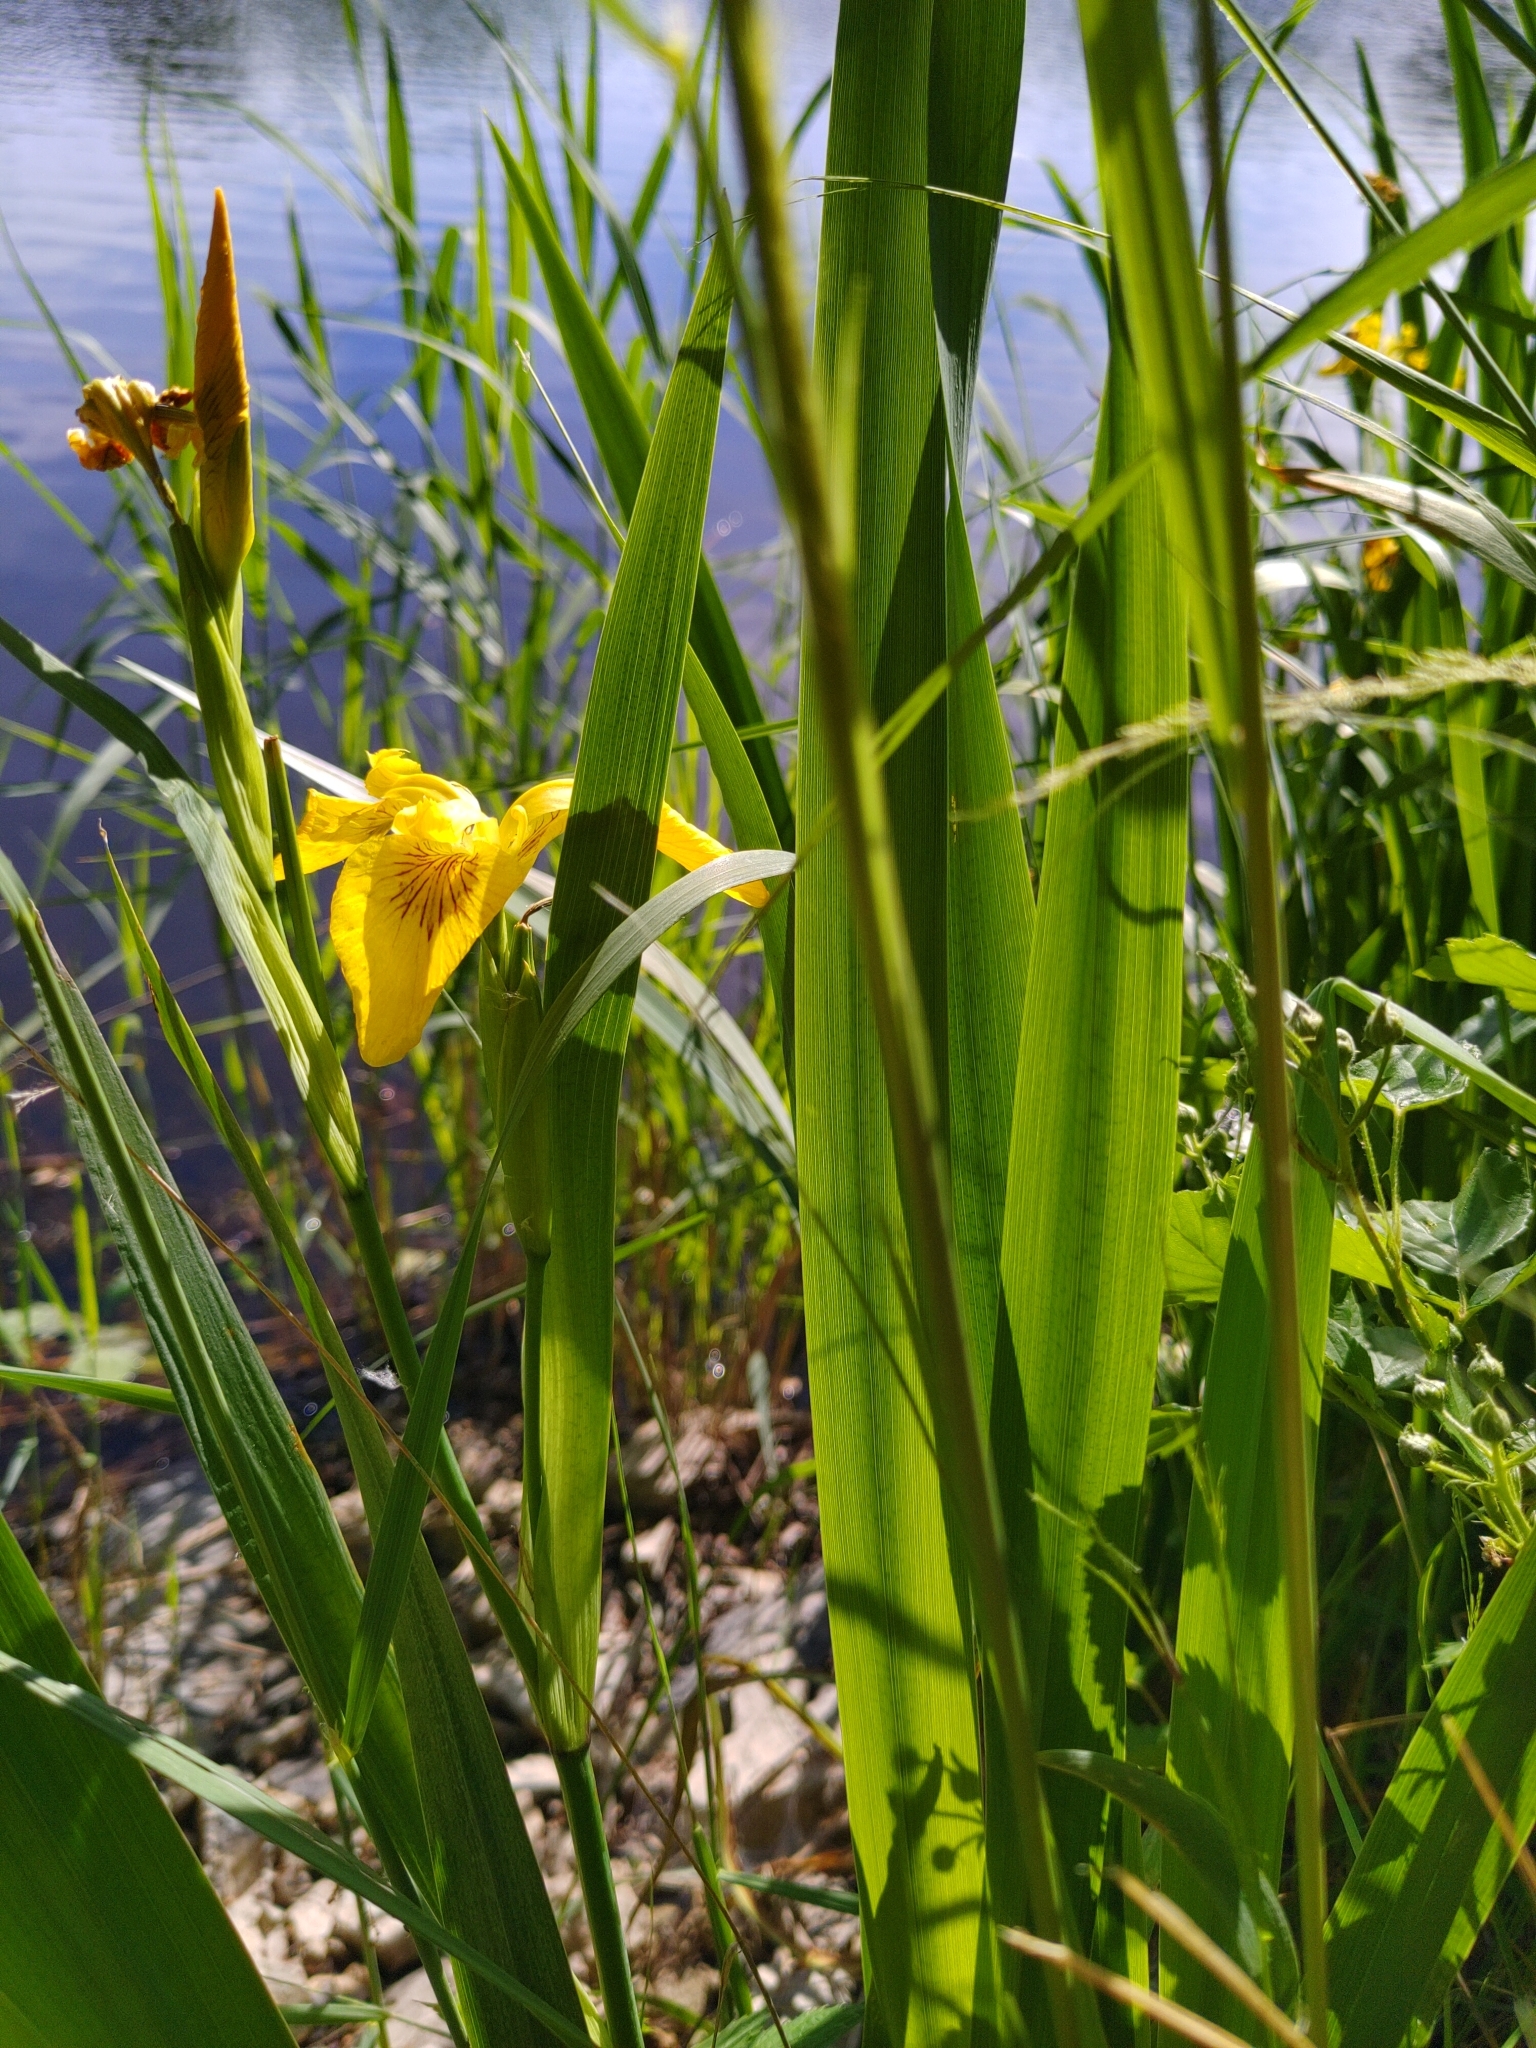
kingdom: Plantae
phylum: Tracheophyta
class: Liliopsida
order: Asparagales
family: Iridaceae
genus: Iris
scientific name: Iris pseudacorus
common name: Yellow flag
